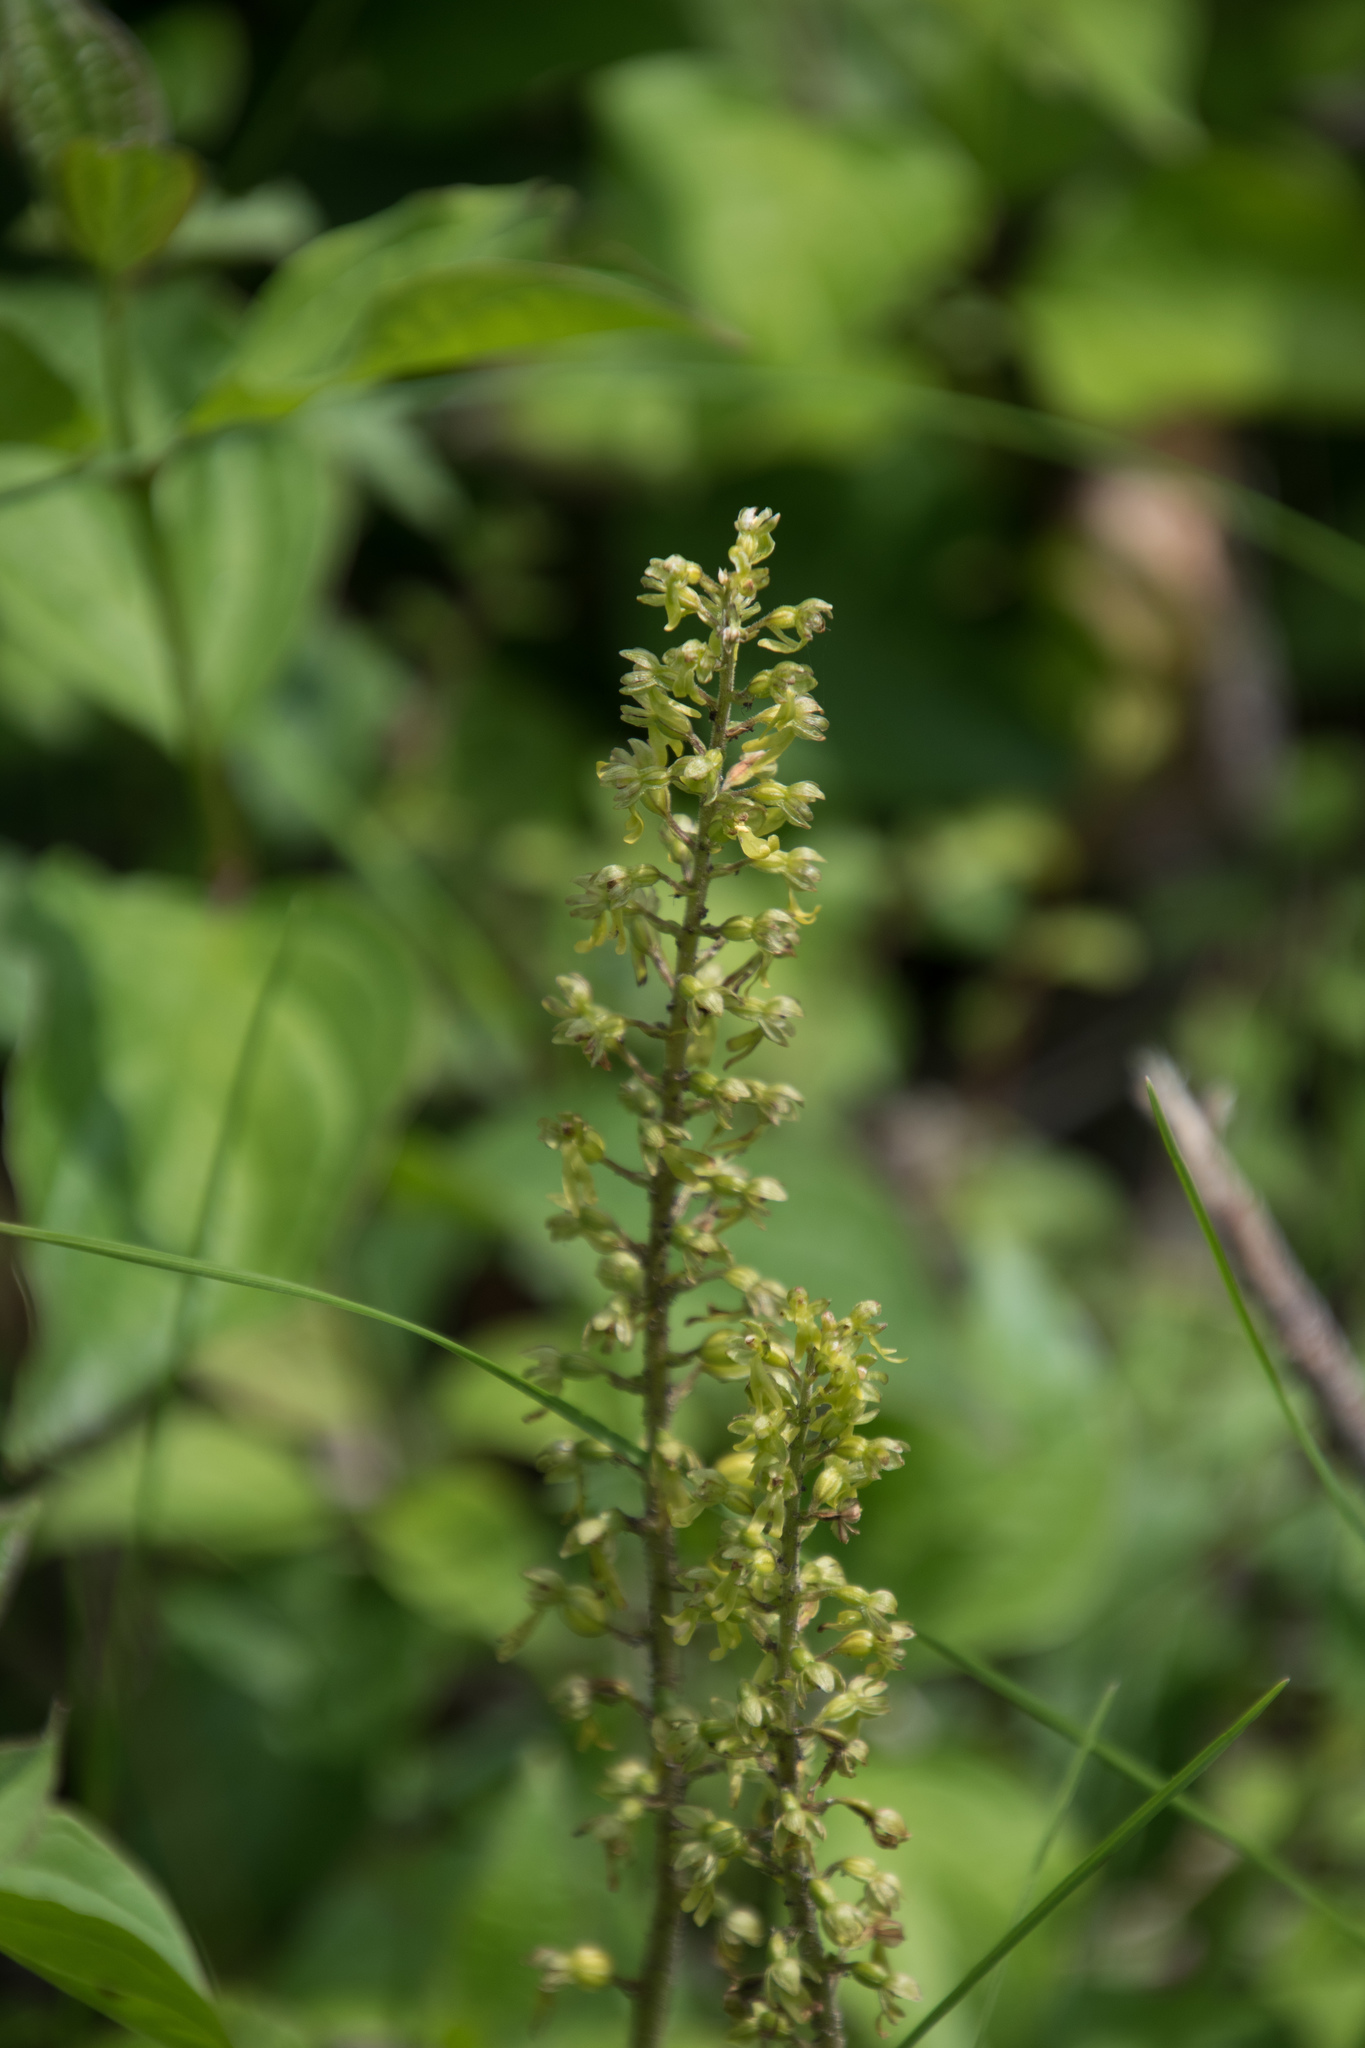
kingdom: Plantae
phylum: Tracheophyta
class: Liliopsida
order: Asparagales
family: Orchidaceae
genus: Neottia
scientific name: Neottia ovata
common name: Common twayblade
